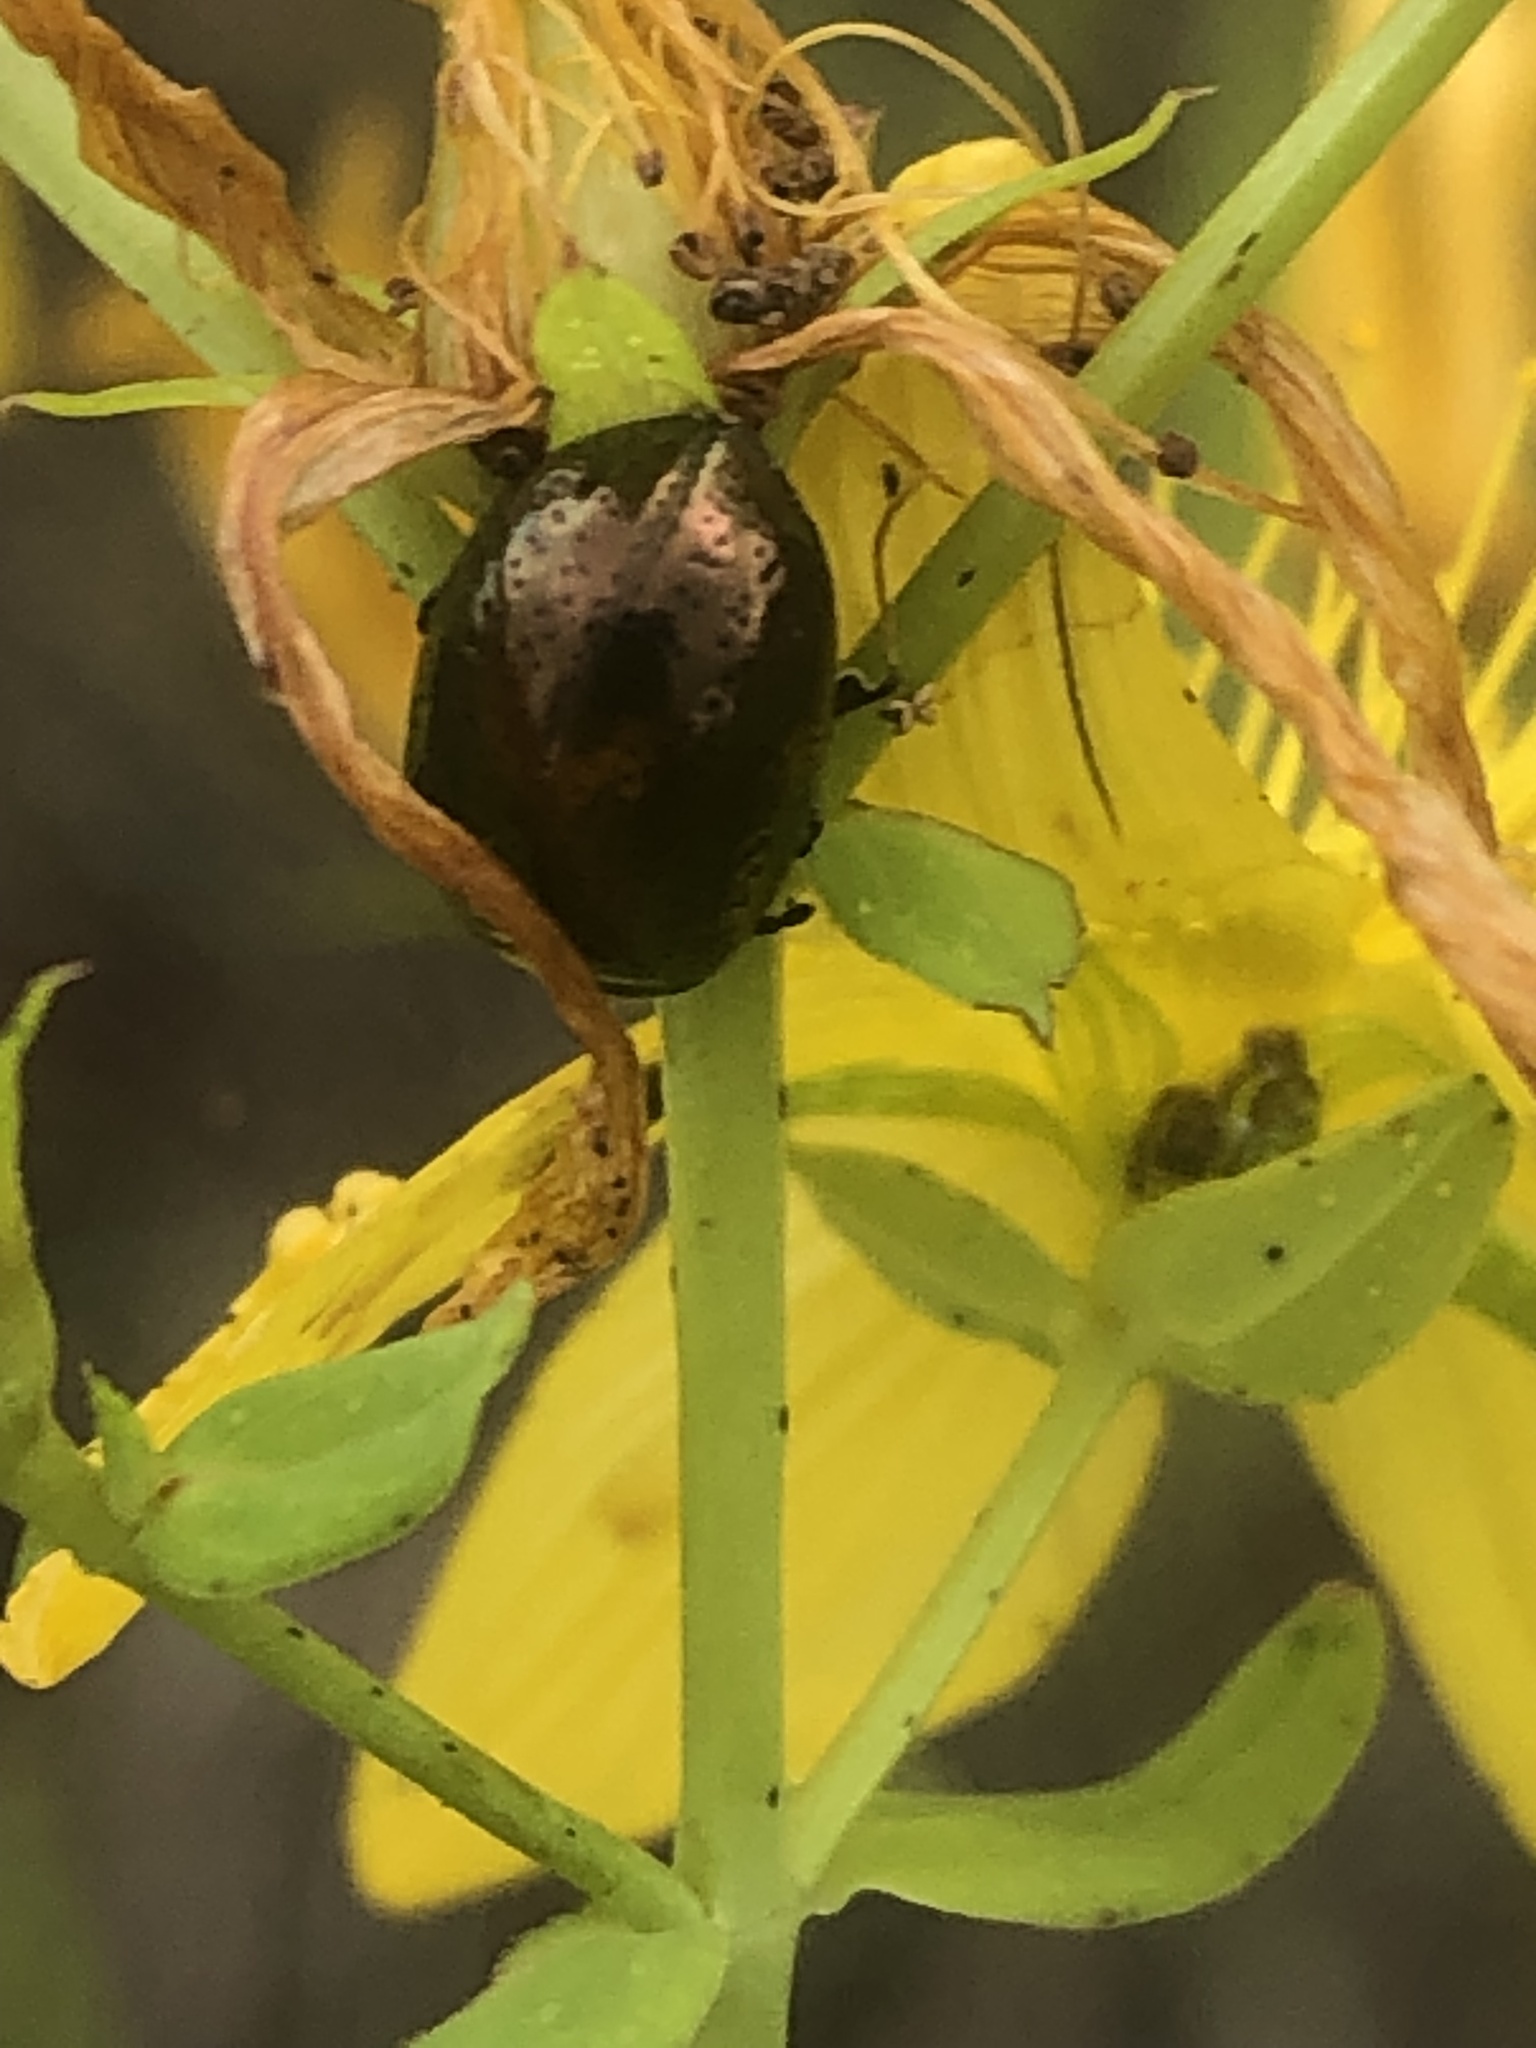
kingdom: Animalia
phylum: Arthropoda
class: Insecta
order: Coleoptera
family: Chrysomelidae
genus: Chrysolina
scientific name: Chrysolina hyperici
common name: St. johnswort beetle
